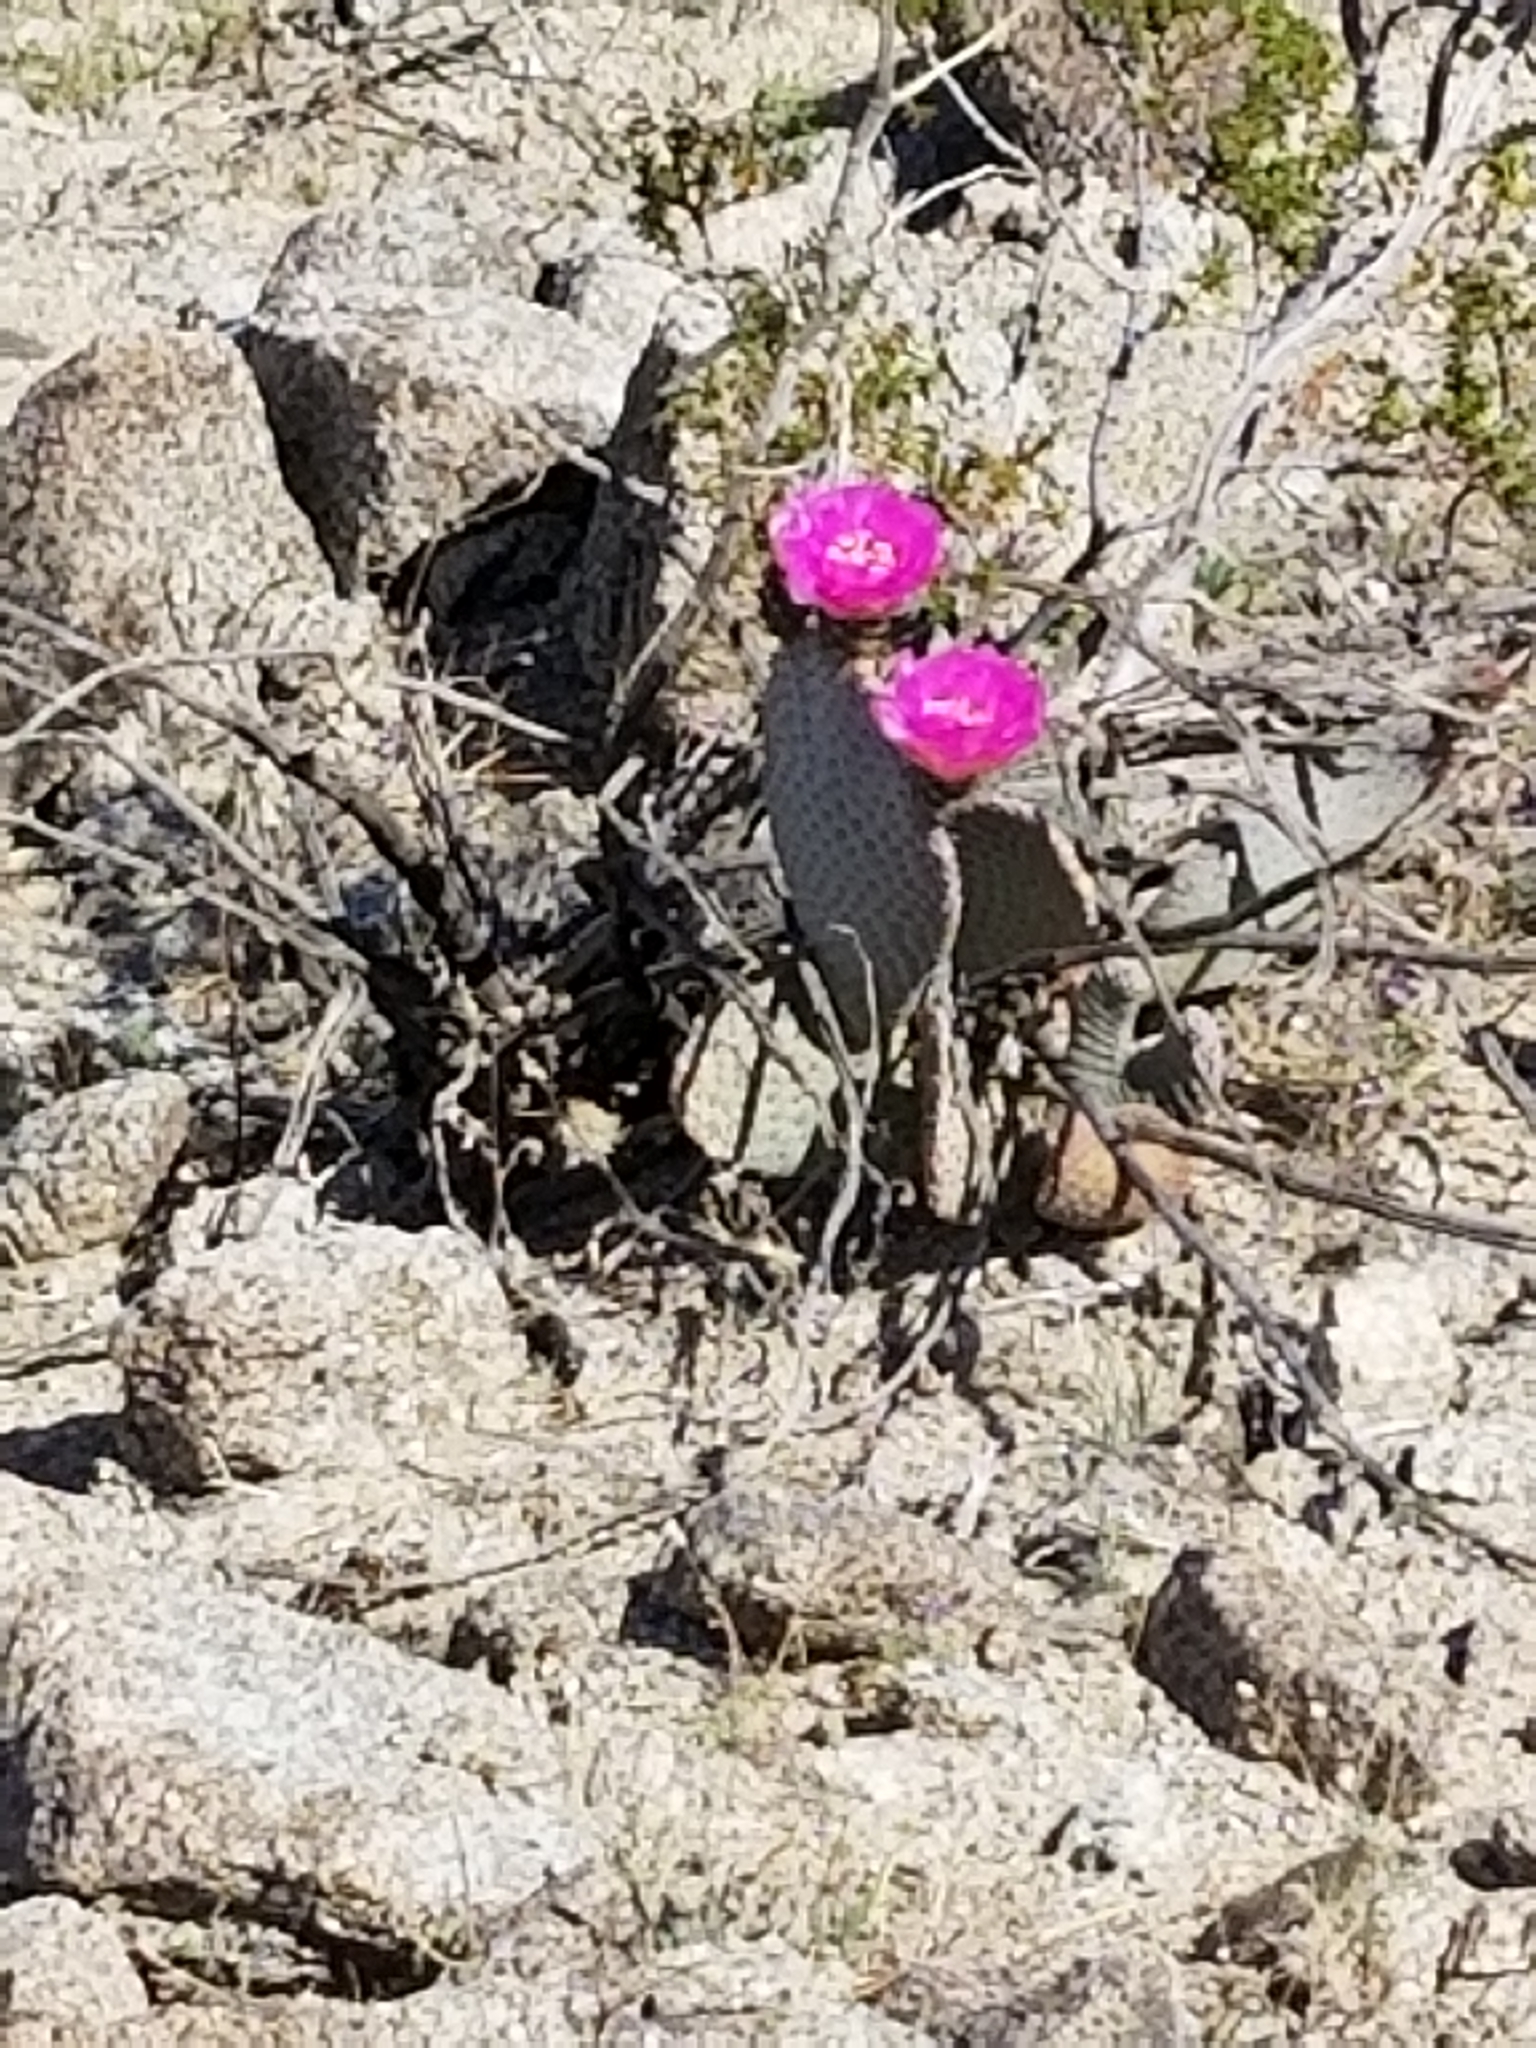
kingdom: Plantae
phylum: Tracheophyta
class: Magnoliopsida
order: Caryophyllales
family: Cactaceae
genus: Opuntia
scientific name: Opuntia basilaris
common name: Beavertail prickly-pear
